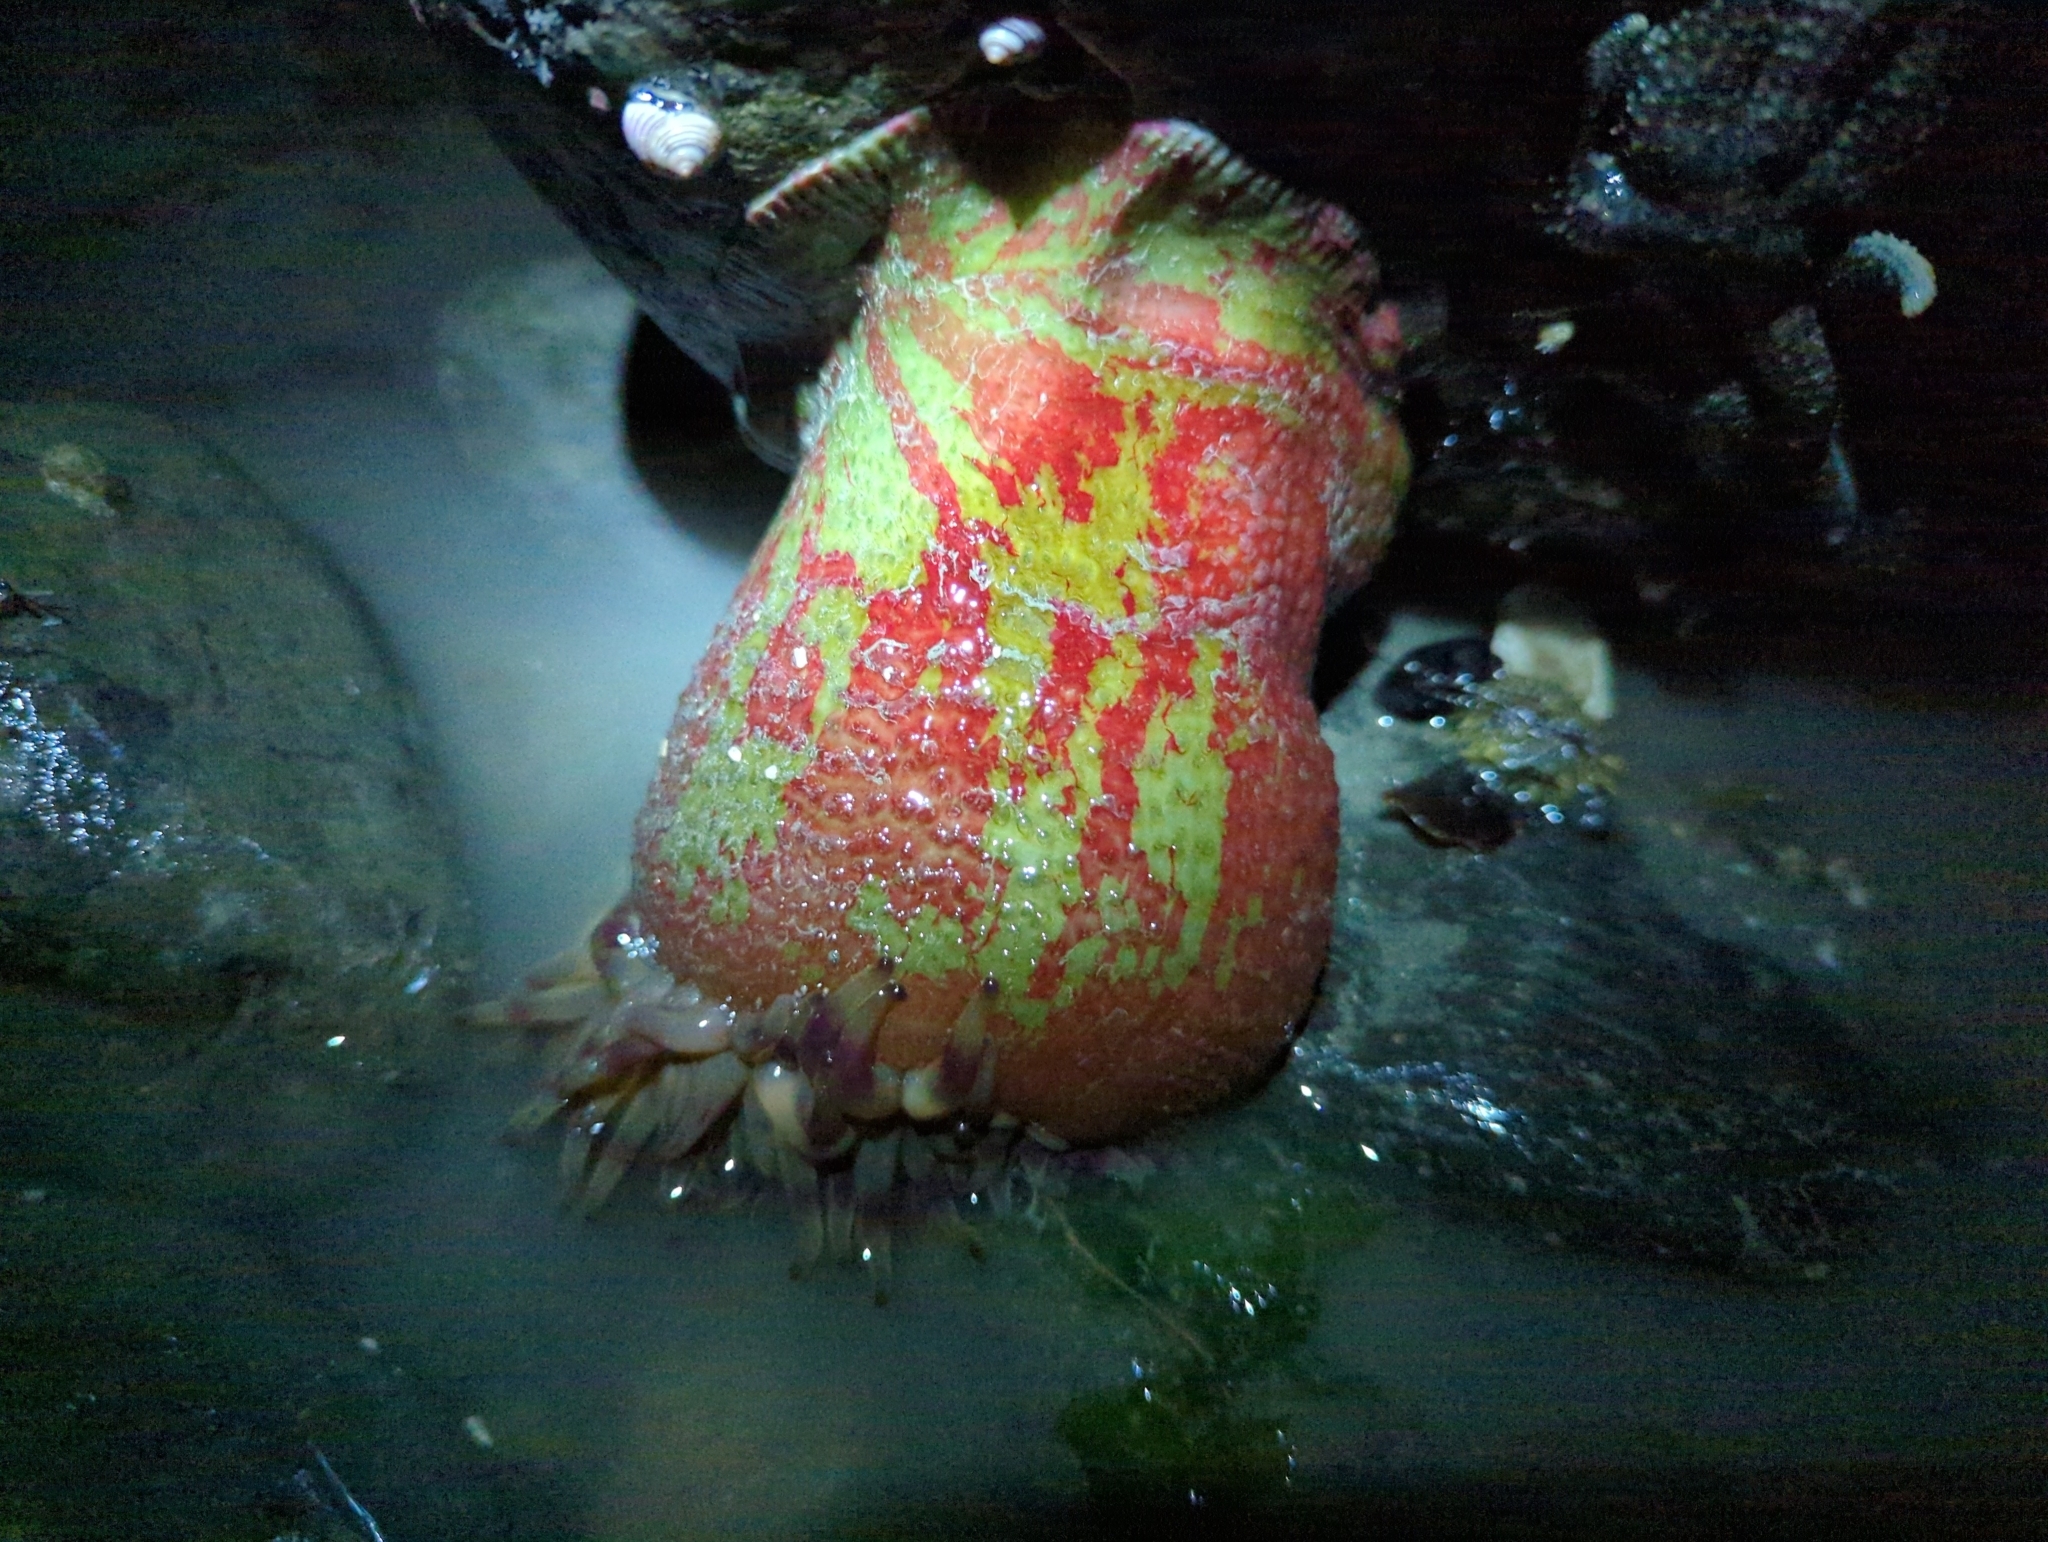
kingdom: Animalia
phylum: Cnidaria
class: Anthozoa
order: Actiniaria
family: Actiniidae
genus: Urticina
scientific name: Urticina grebelnyi
